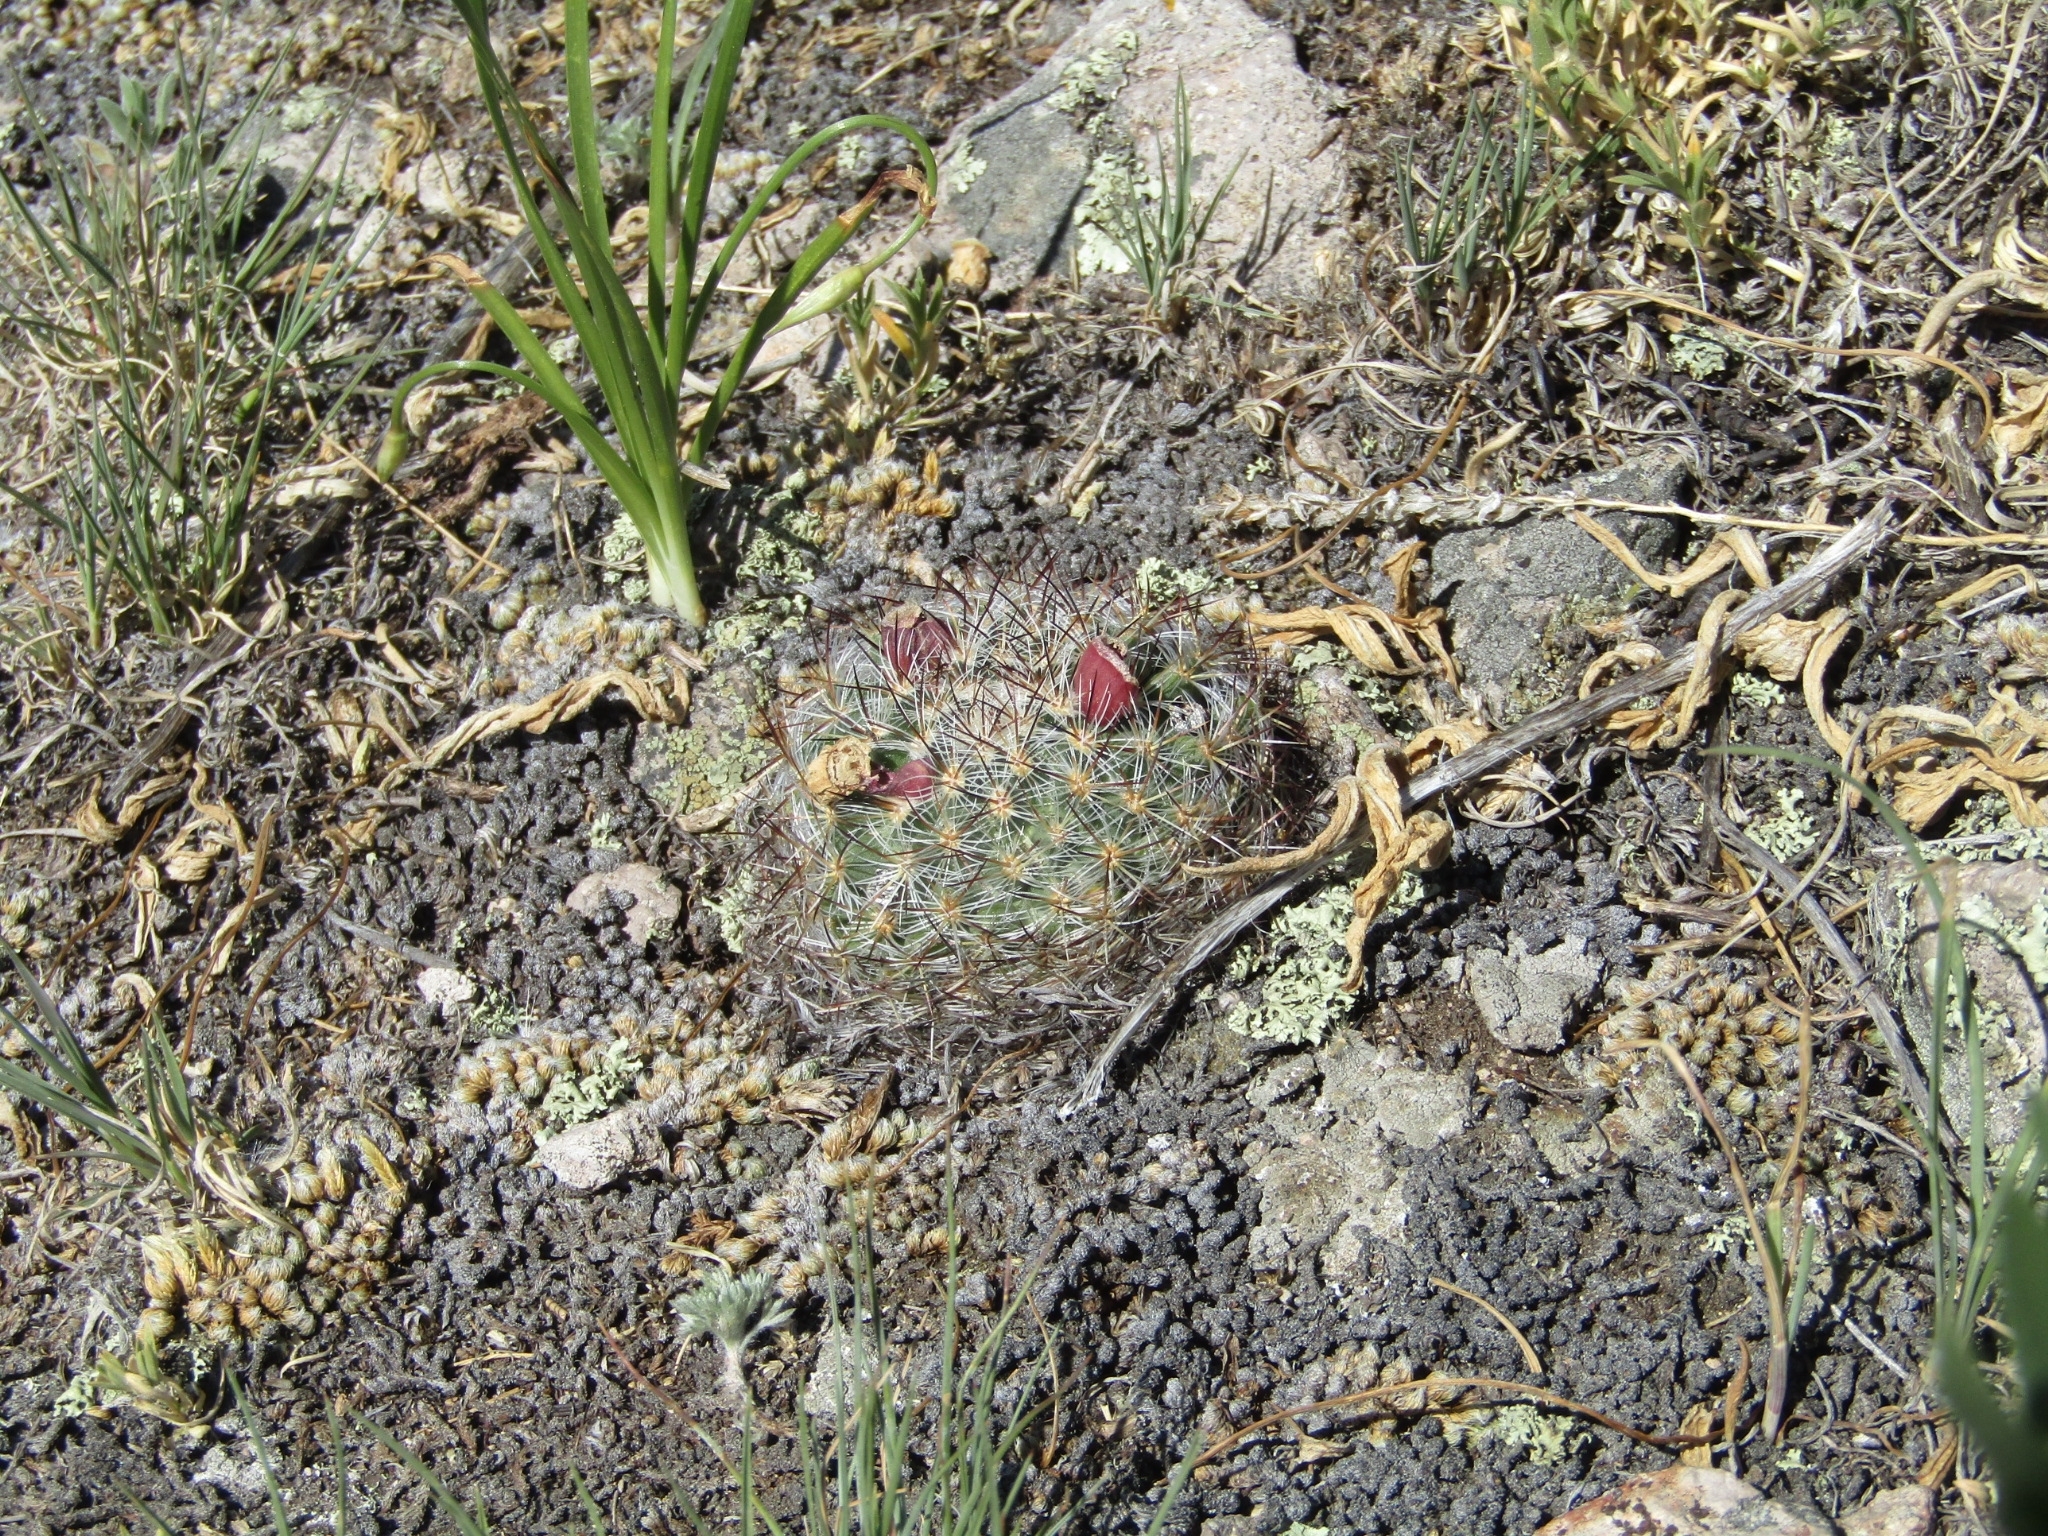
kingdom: Plantae
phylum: Tracheophyta
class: Magnoliopsida
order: Caryophyllales
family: Cactaceae
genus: Pediocactus
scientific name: Pediocactus simpsonii
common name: Simpson's hedgehog cactus
